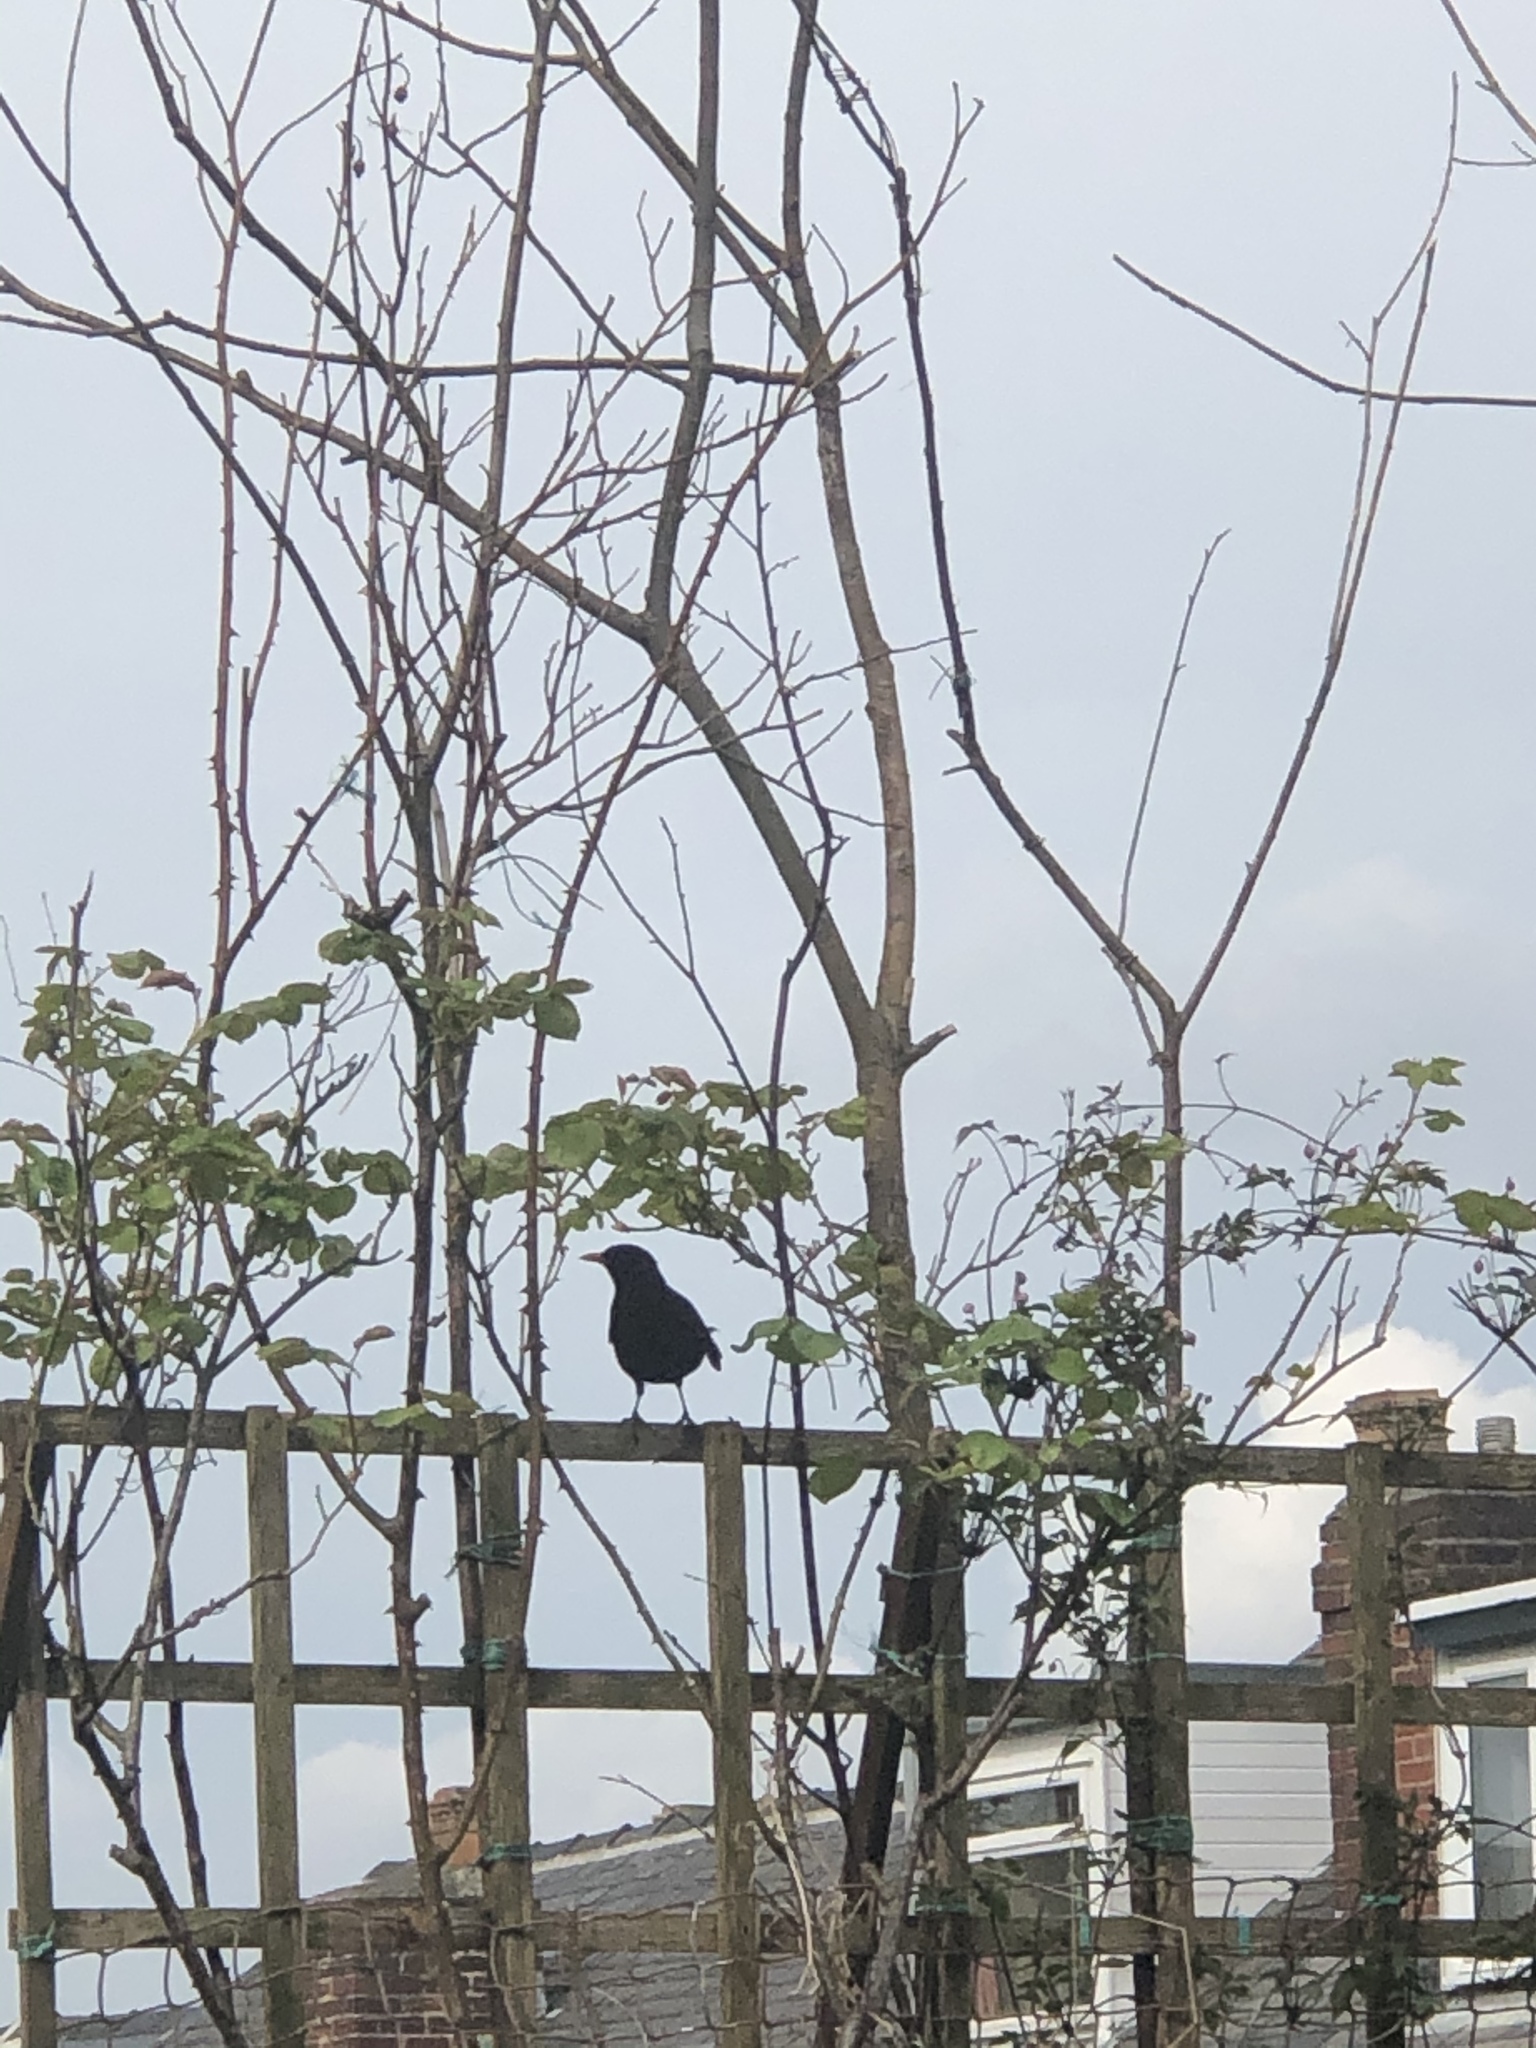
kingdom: Animalia
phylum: Chordata
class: Aves
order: Passeriformes
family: Turdidae
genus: Turdus
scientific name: Turdus merula
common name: Common blackbird
